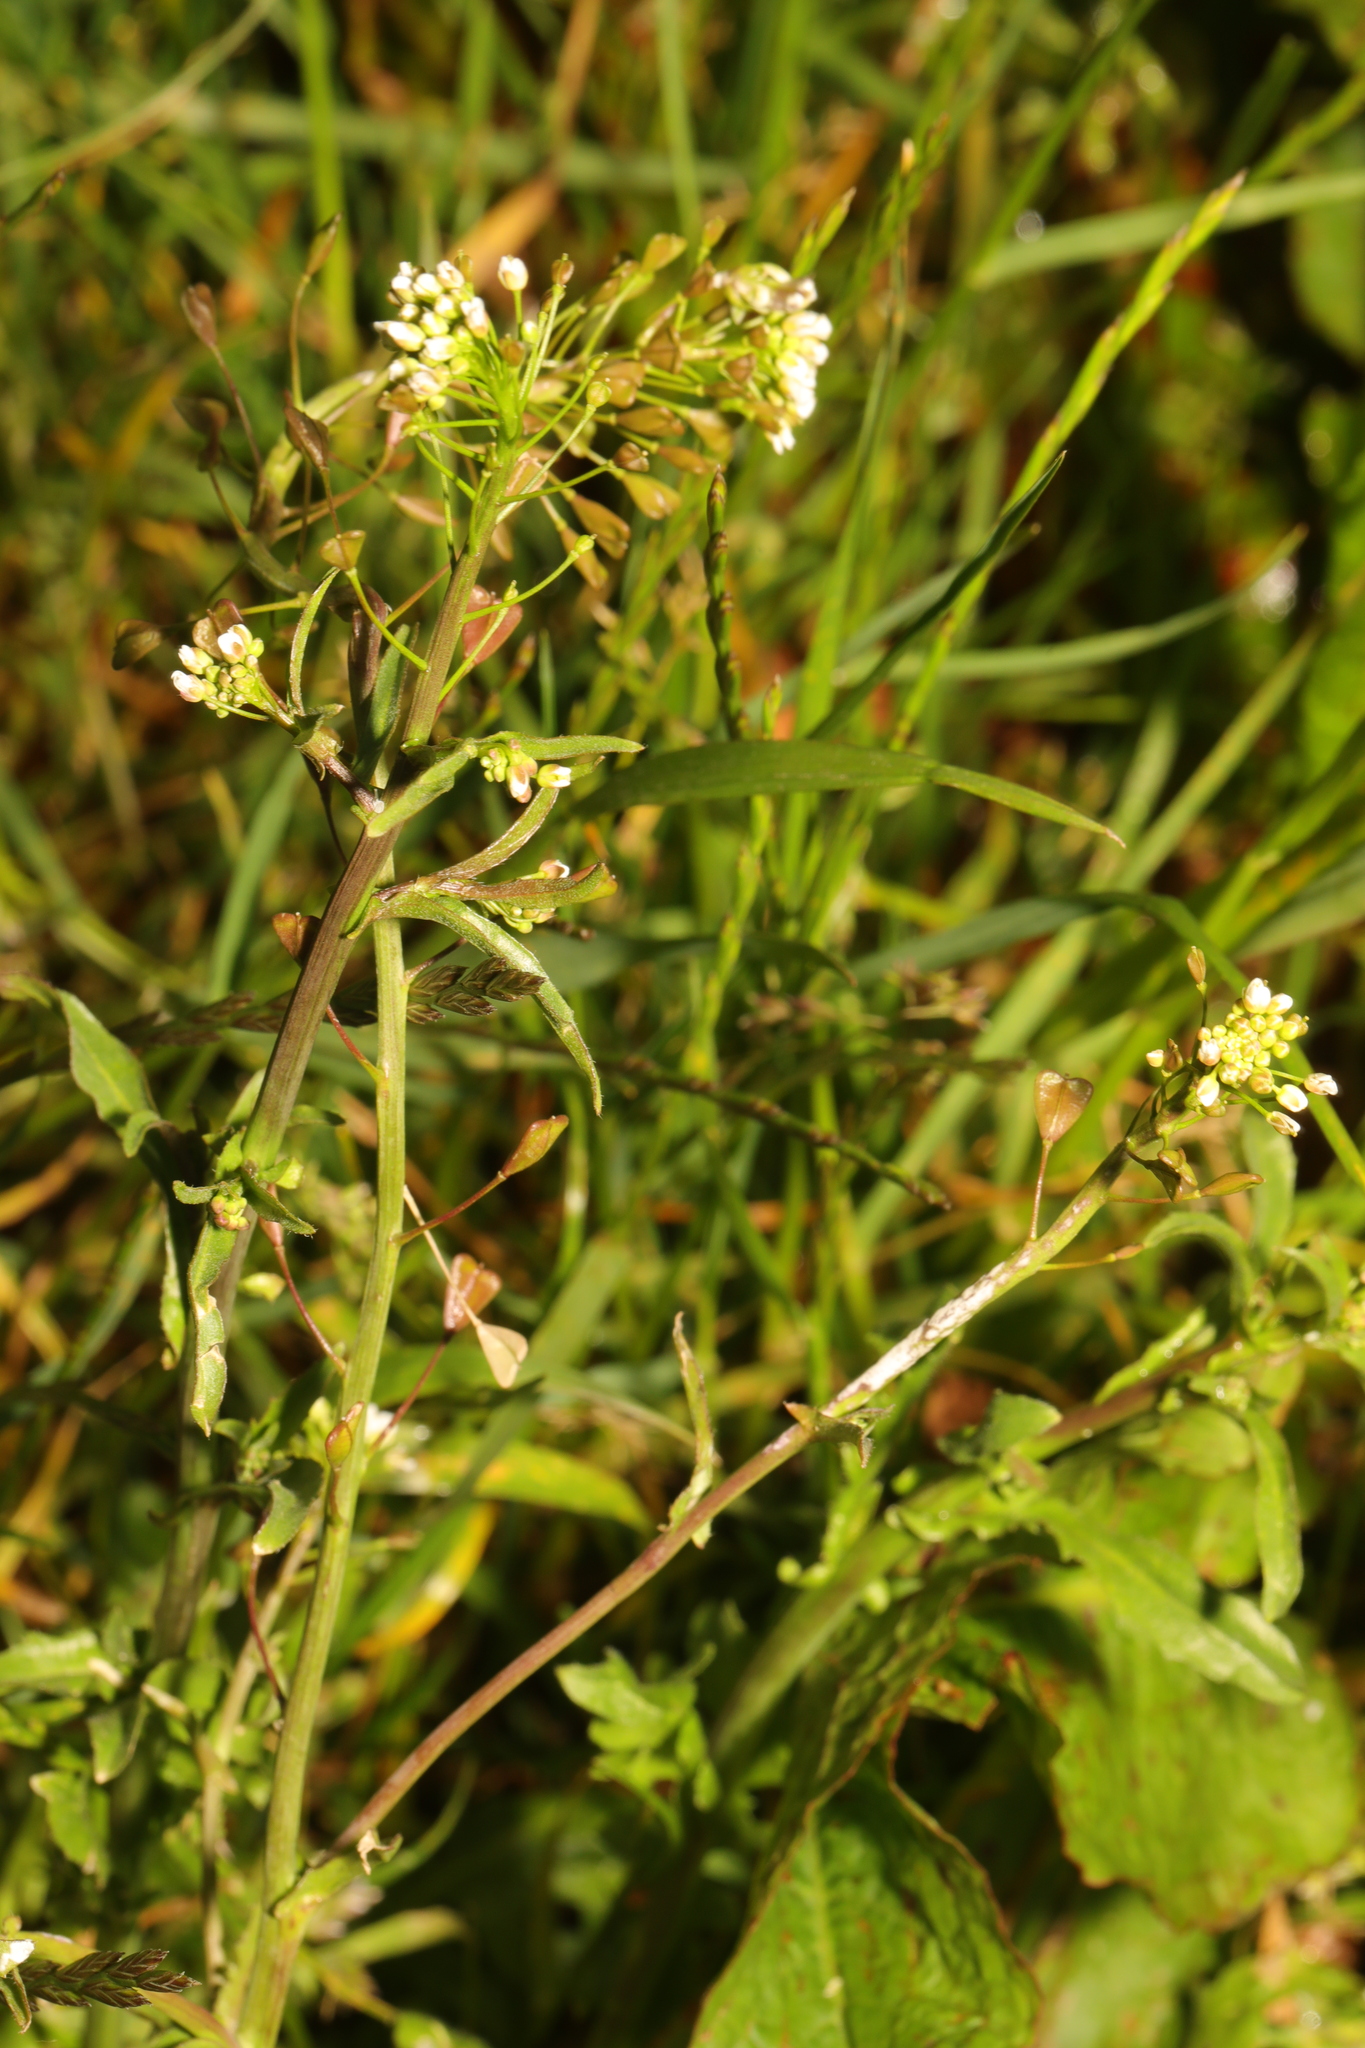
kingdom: Plantae
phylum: Tracheophyta
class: Magnoliopsida
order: Brassicales
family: Brassicaceae
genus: Capsella
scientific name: Capsella bursa-pastoris
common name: Shepherd's purse
